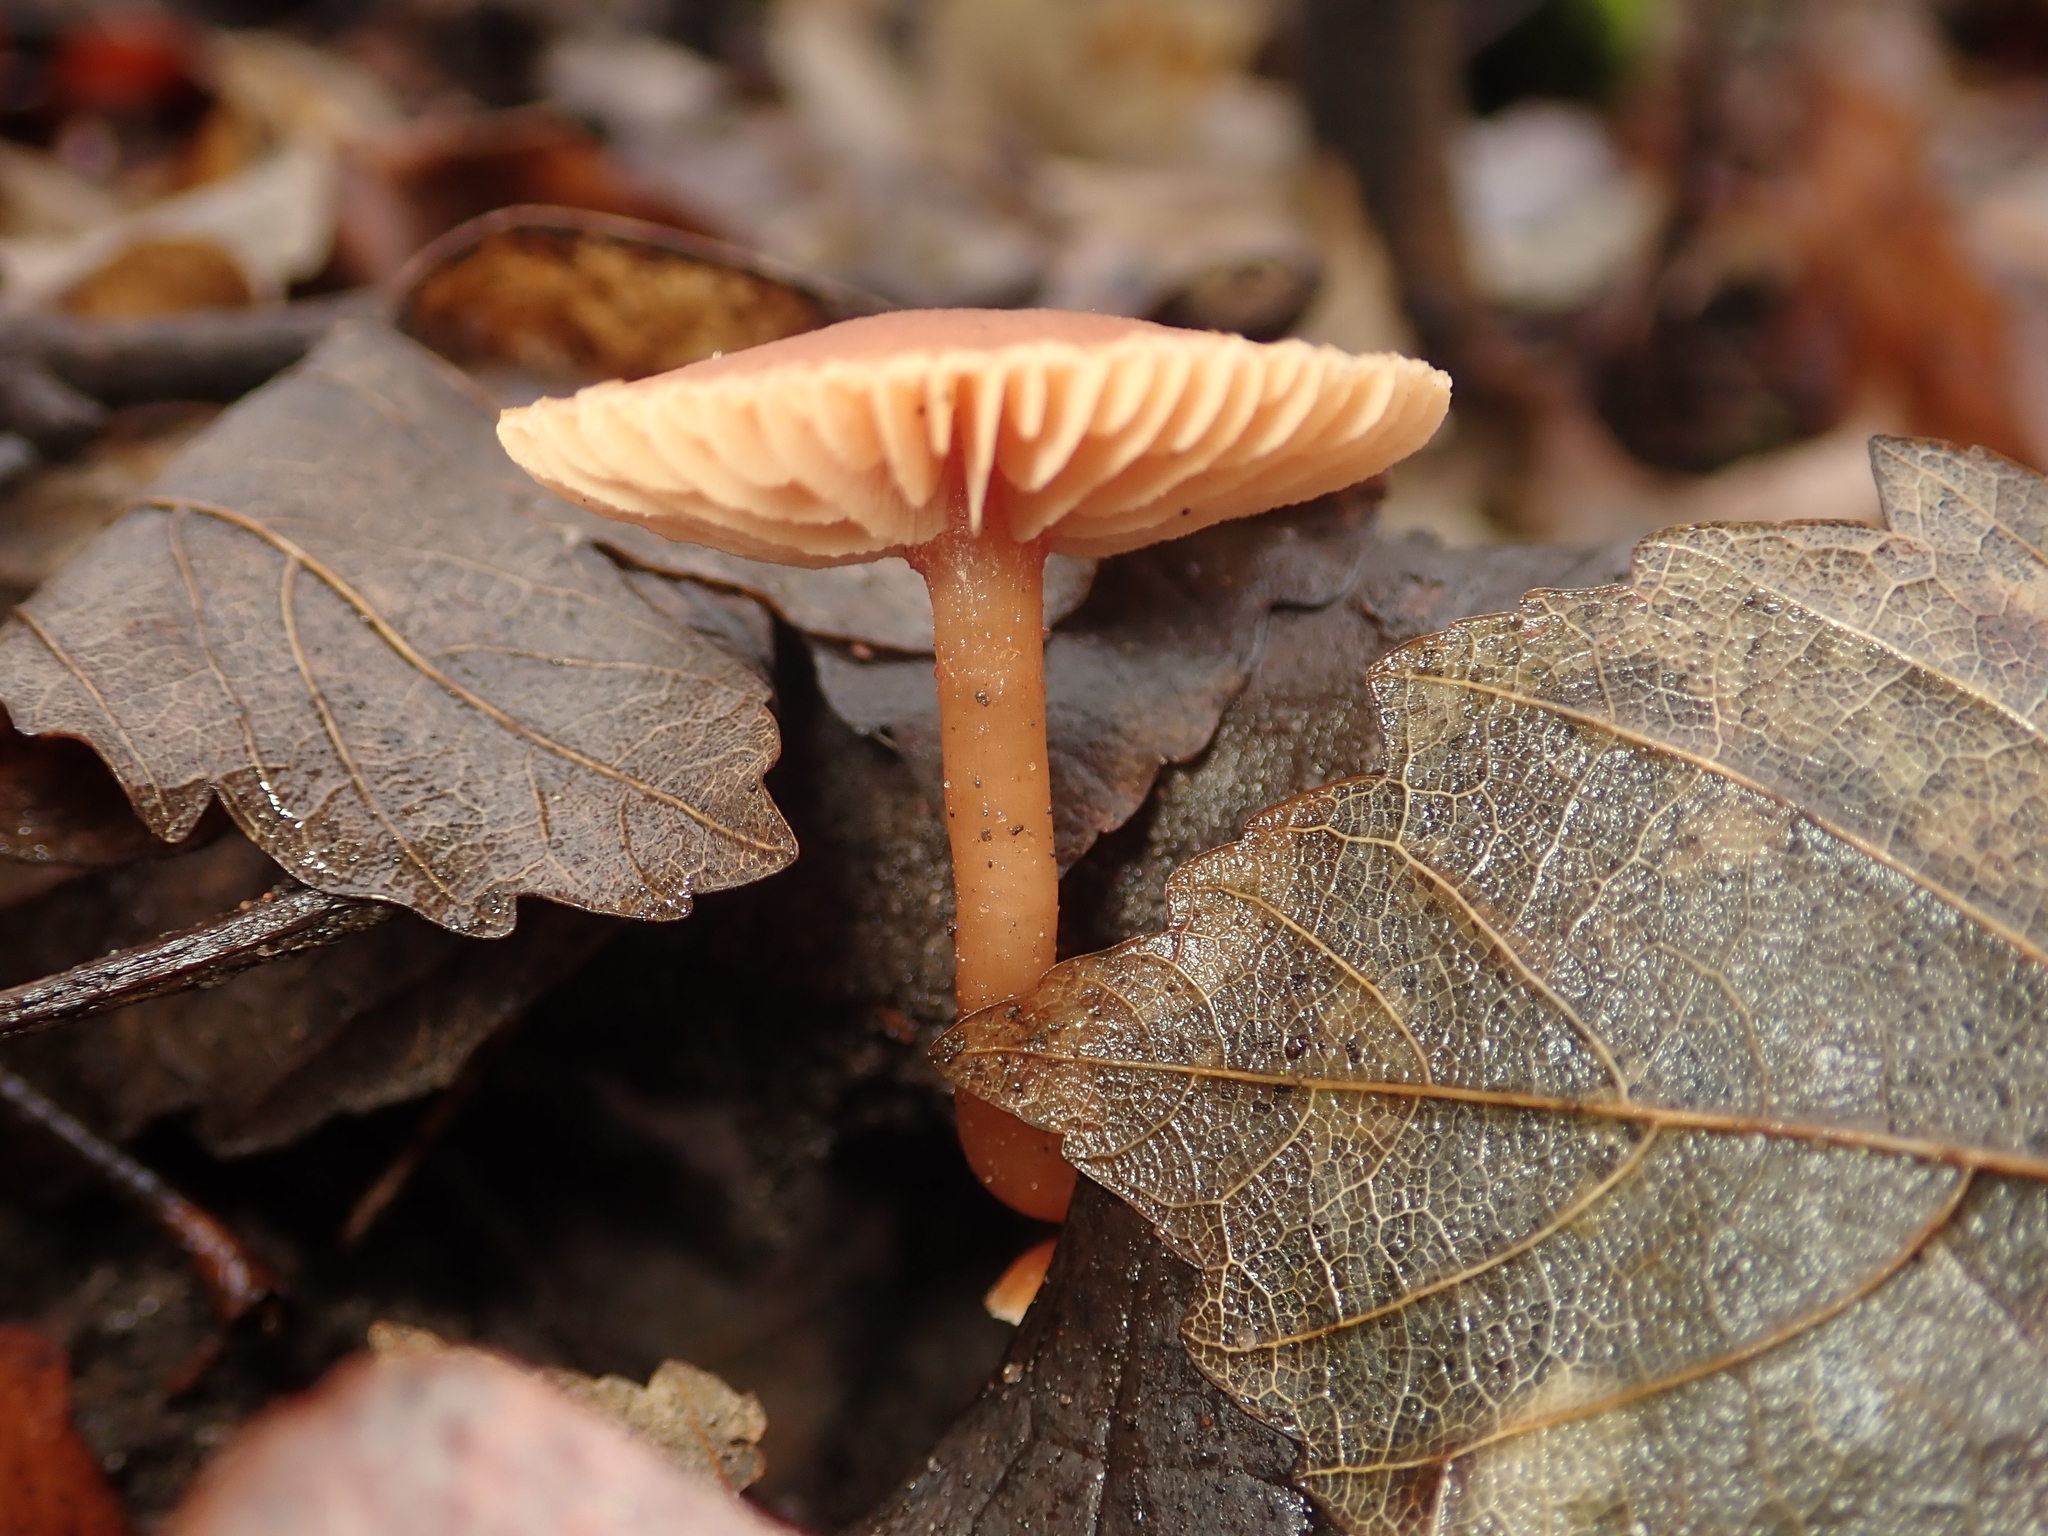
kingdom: Fungi
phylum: Basidiomycota
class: Agaricomycetes
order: Agaricales
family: Tubariaceae
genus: Tubaria
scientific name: Tubaria furfuracea
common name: Scurfy twiglet
